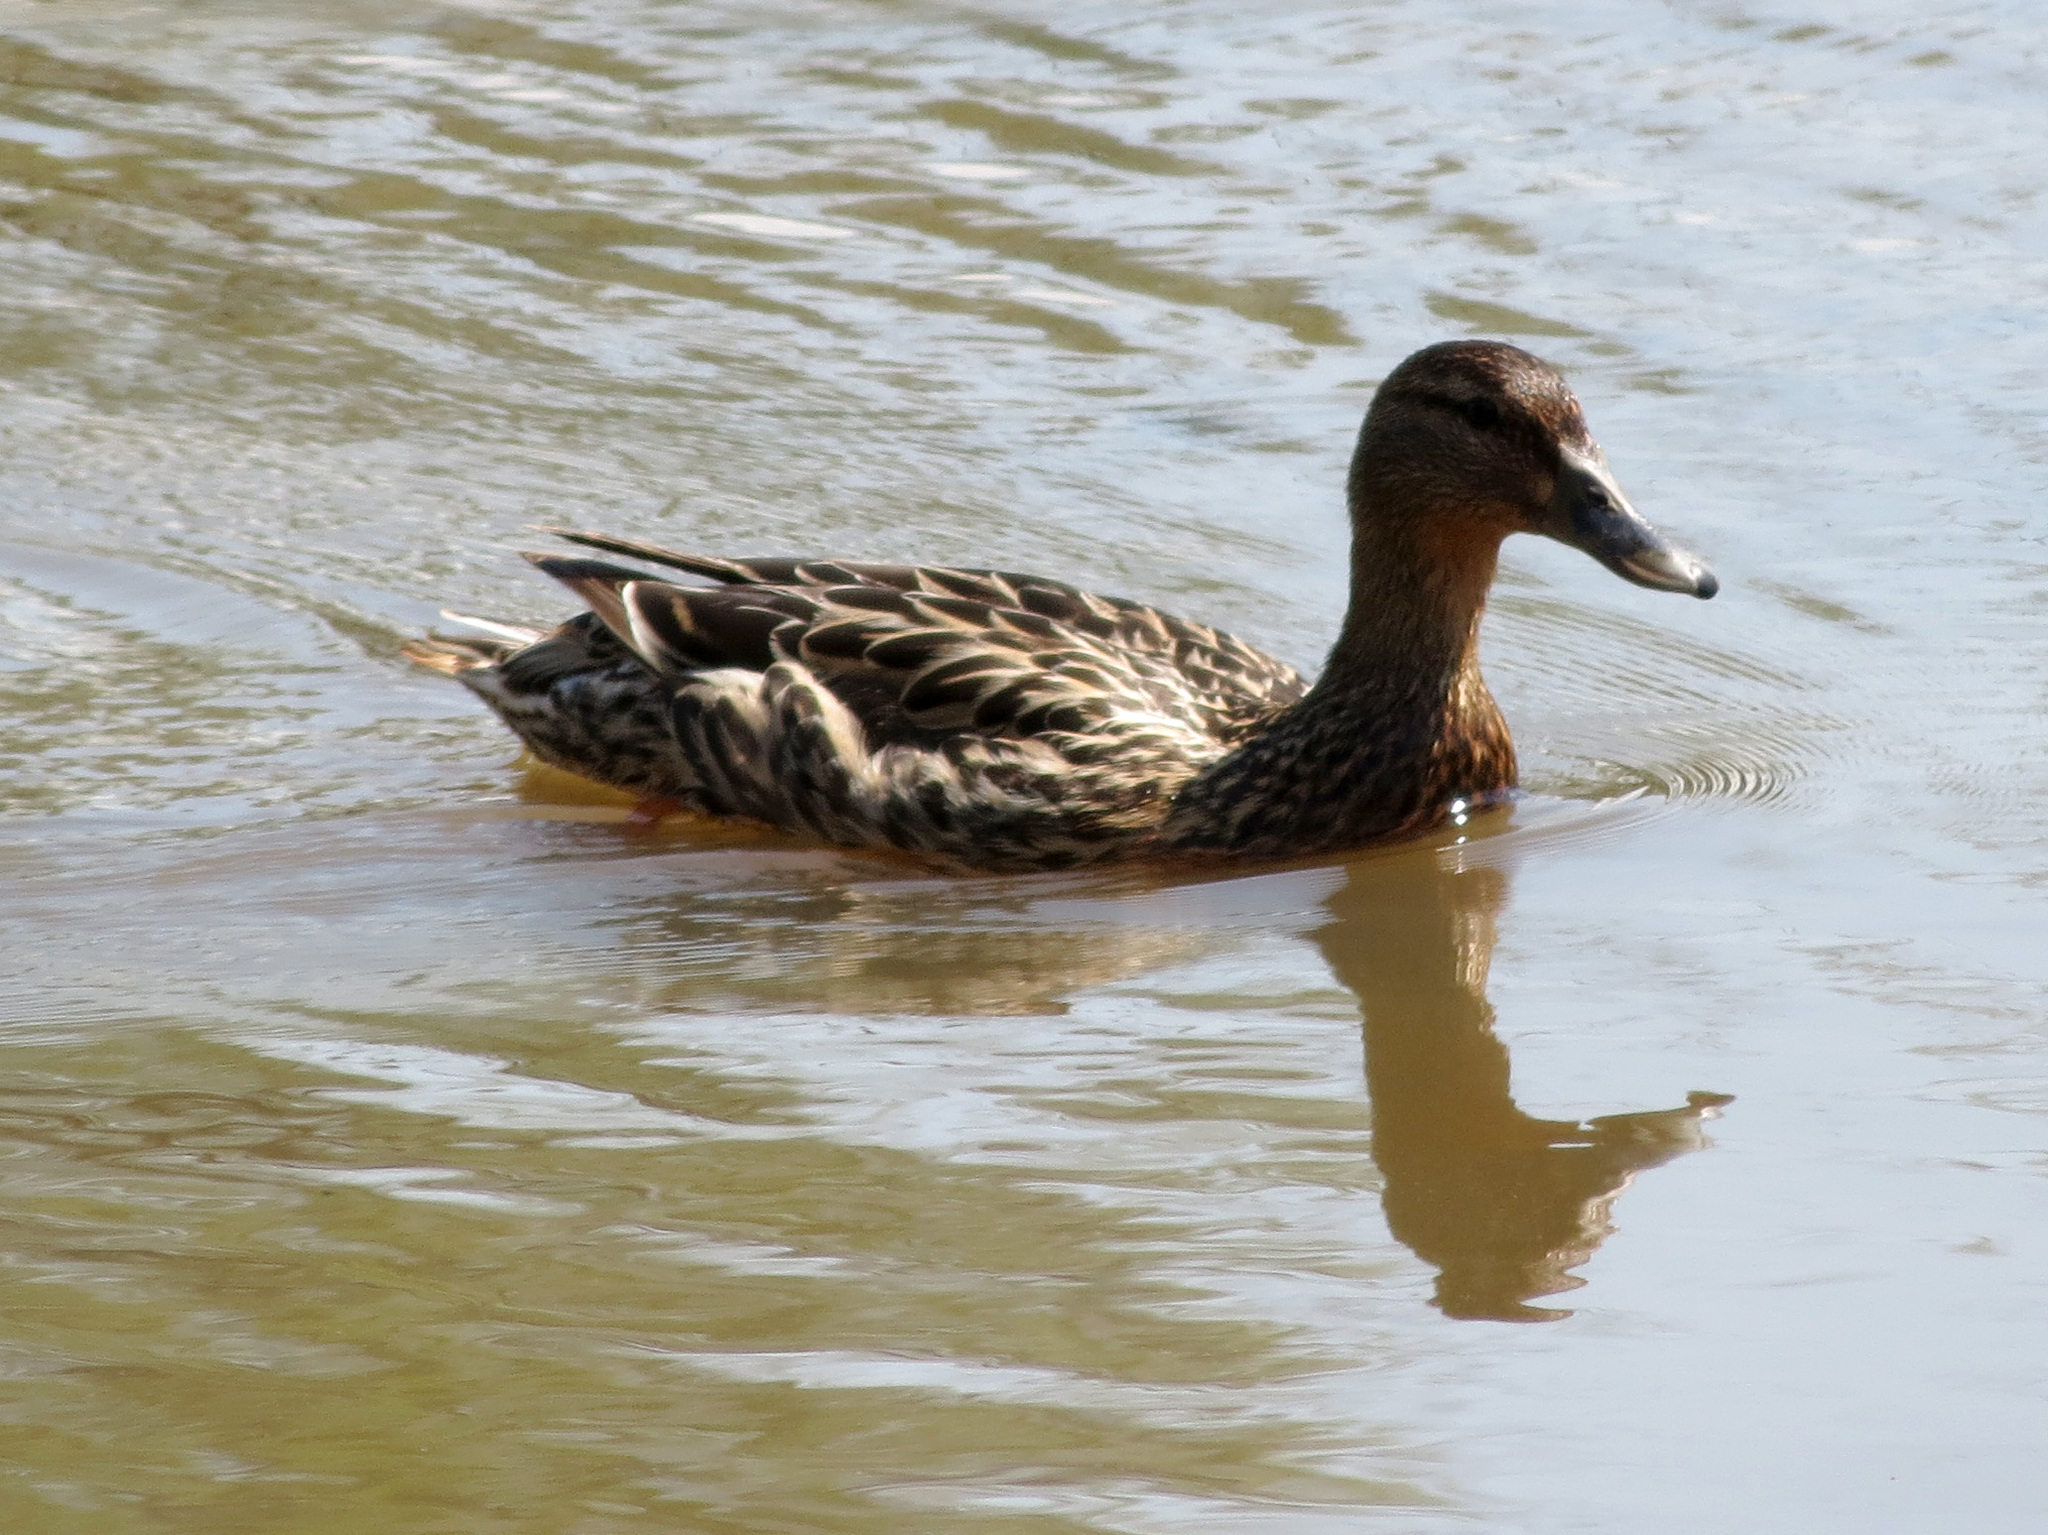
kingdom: Animalia
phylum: Chordata
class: Aves
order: Anseriformes
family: Anatidae
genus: Anas
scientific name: Anas platyrhynchos
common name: Mallard
